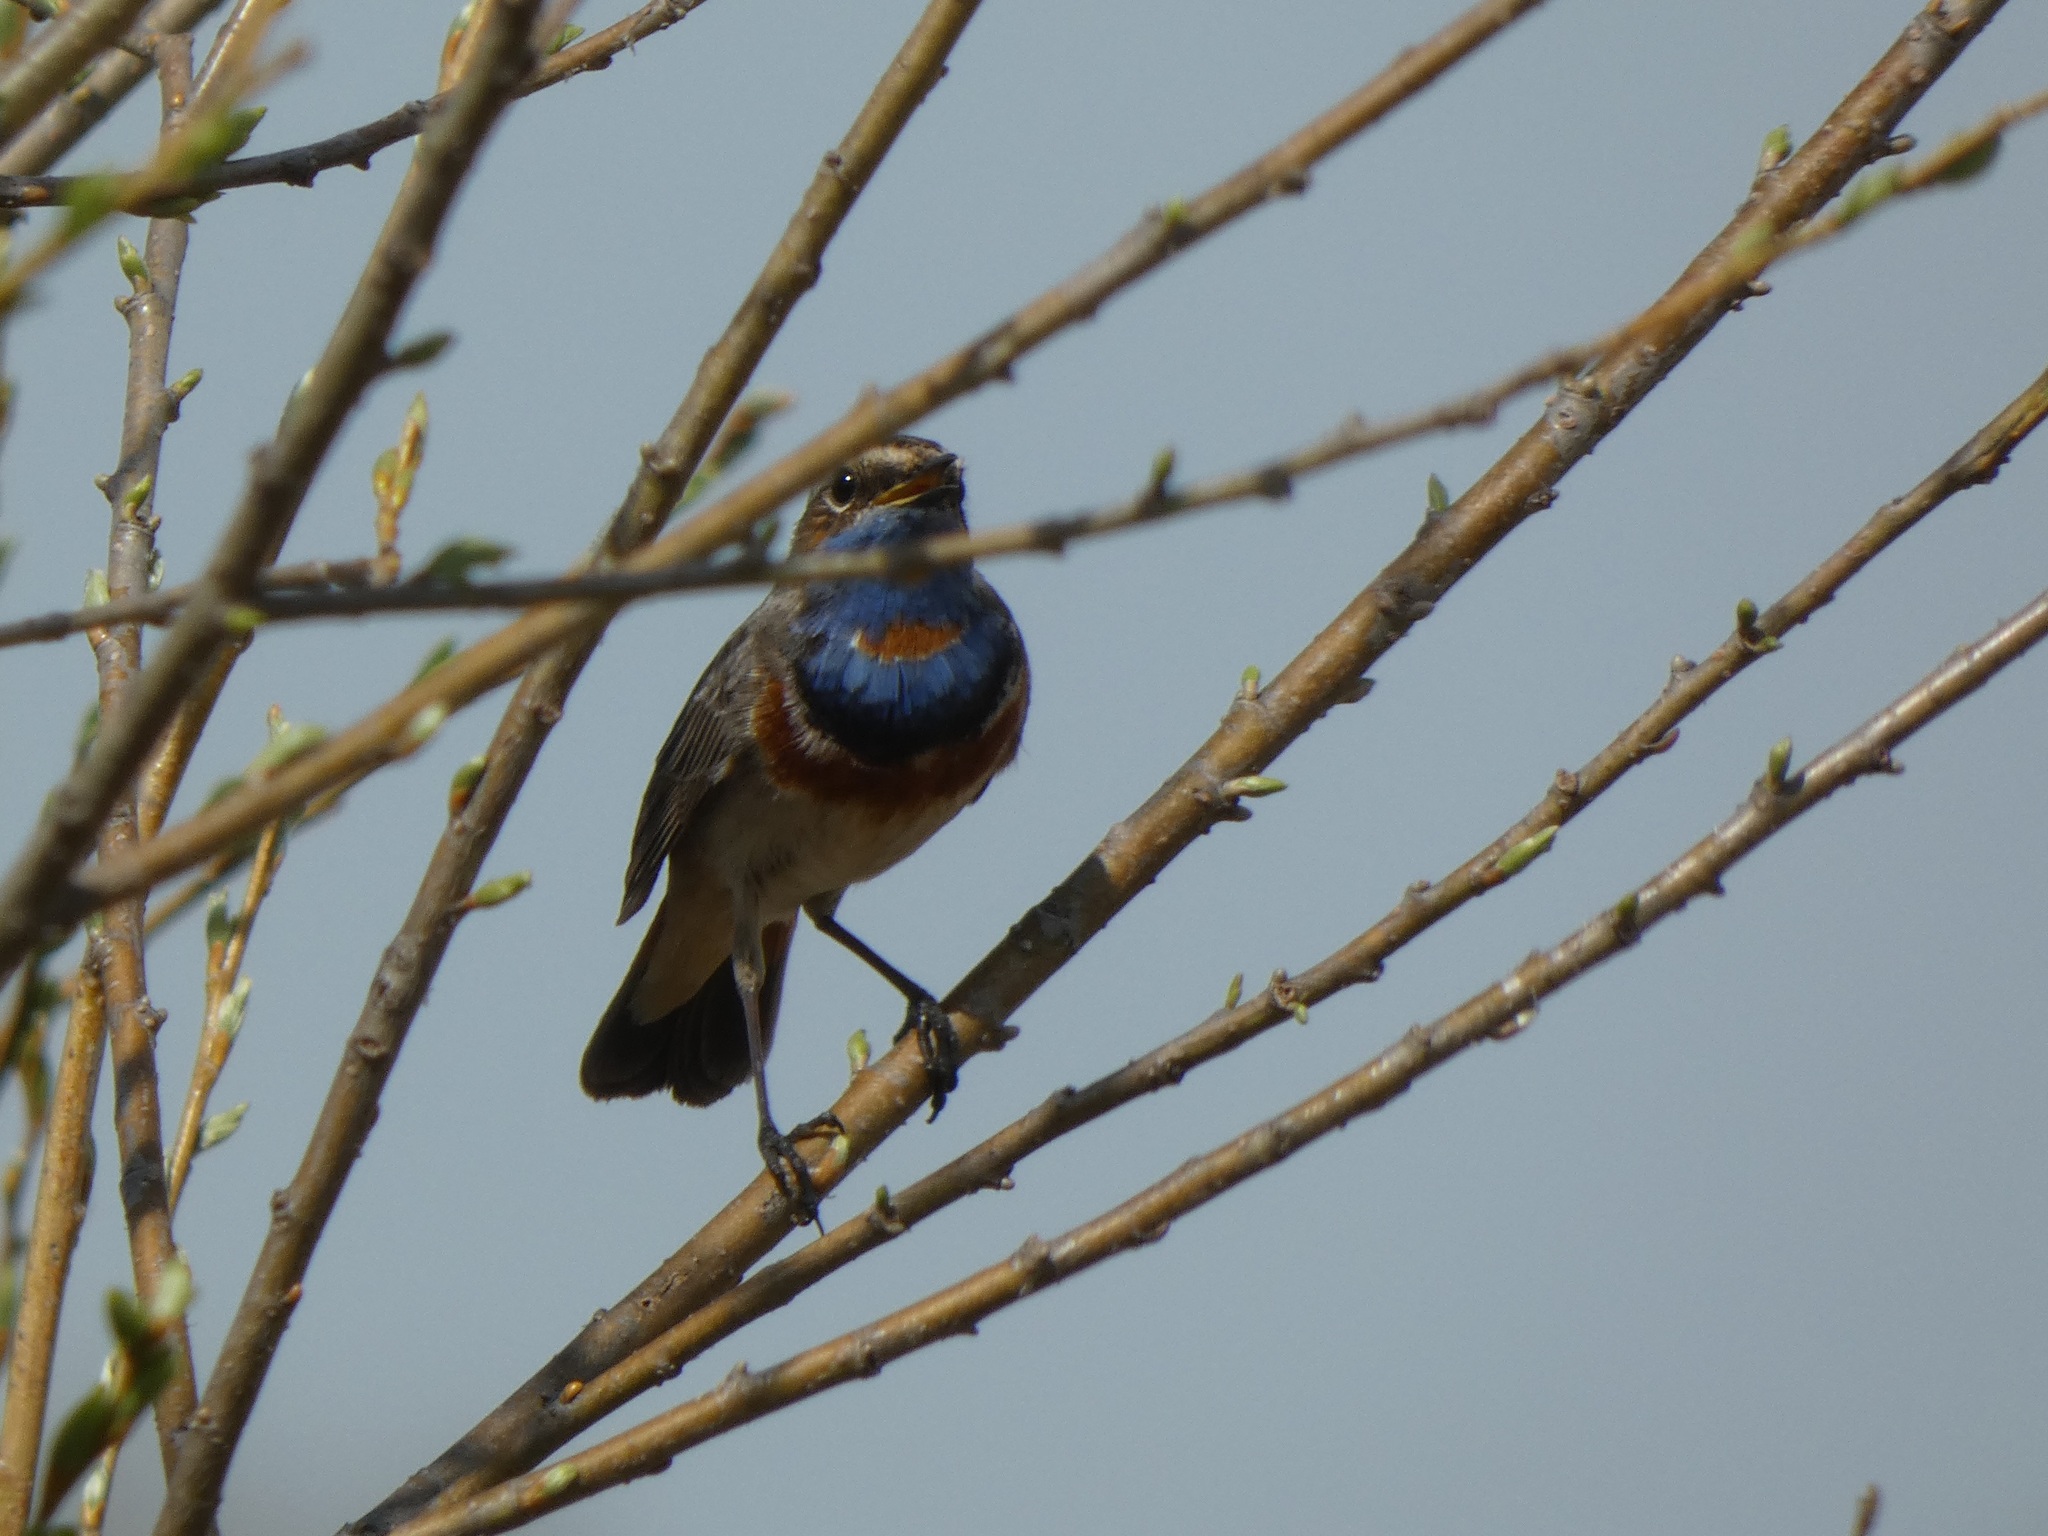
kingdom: Animalia
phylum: Chordata
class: Aves
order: Passeriformes
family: Muscicapidae
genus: Luscinia
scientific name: Luscinia svecica
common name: Bluethroat
